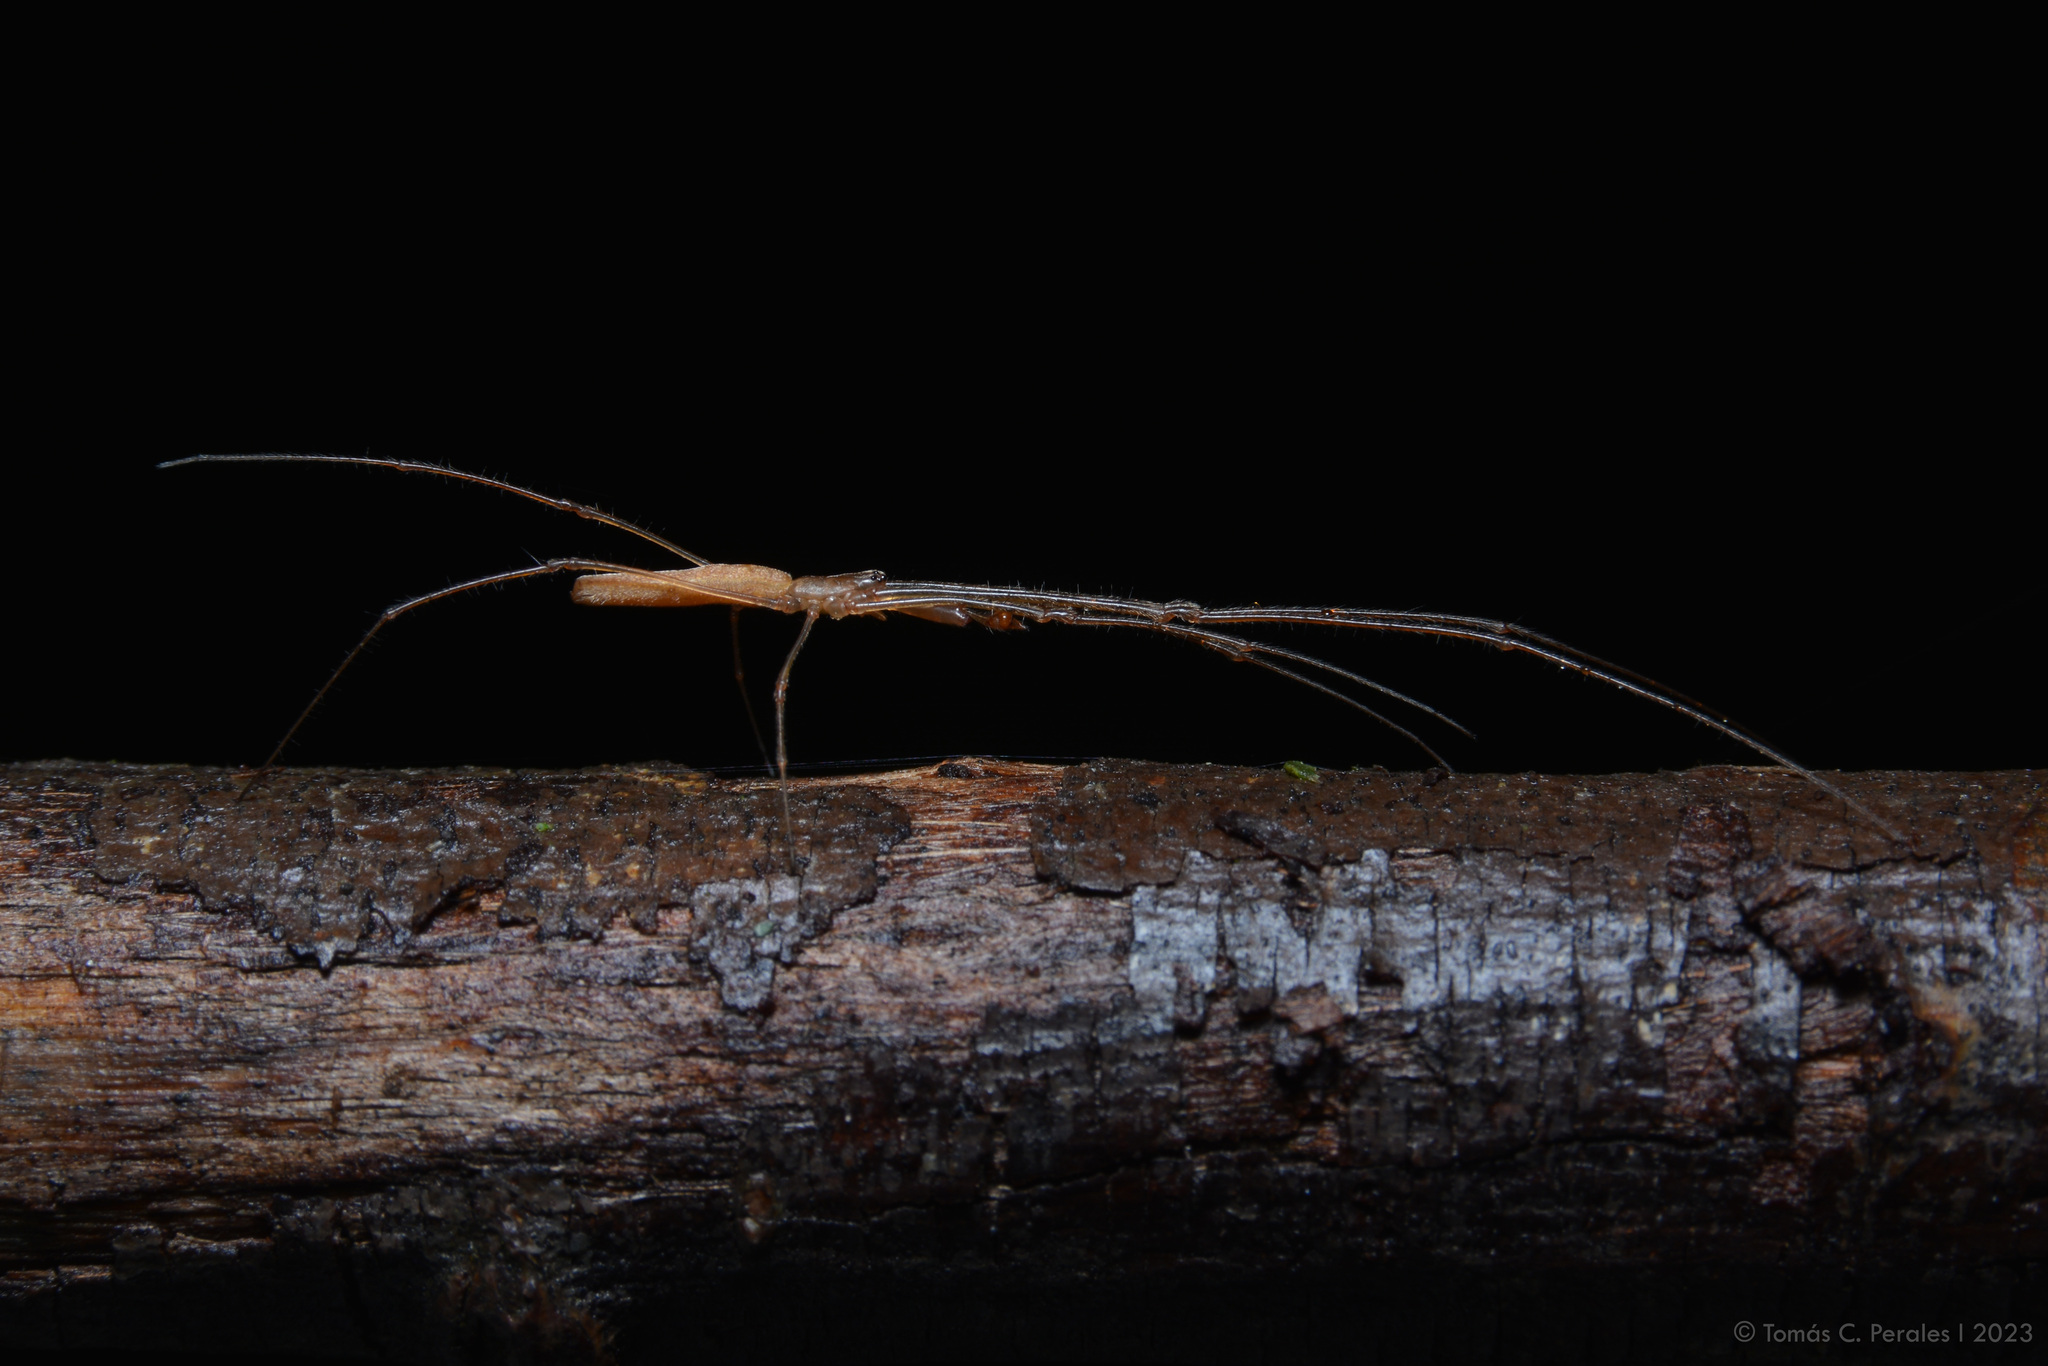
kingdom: Animalia
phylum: Arthropoda
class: Arachnida
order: Araneae
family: Tetragnathidae
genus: Tetragnatha
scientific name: Tetragnatha
